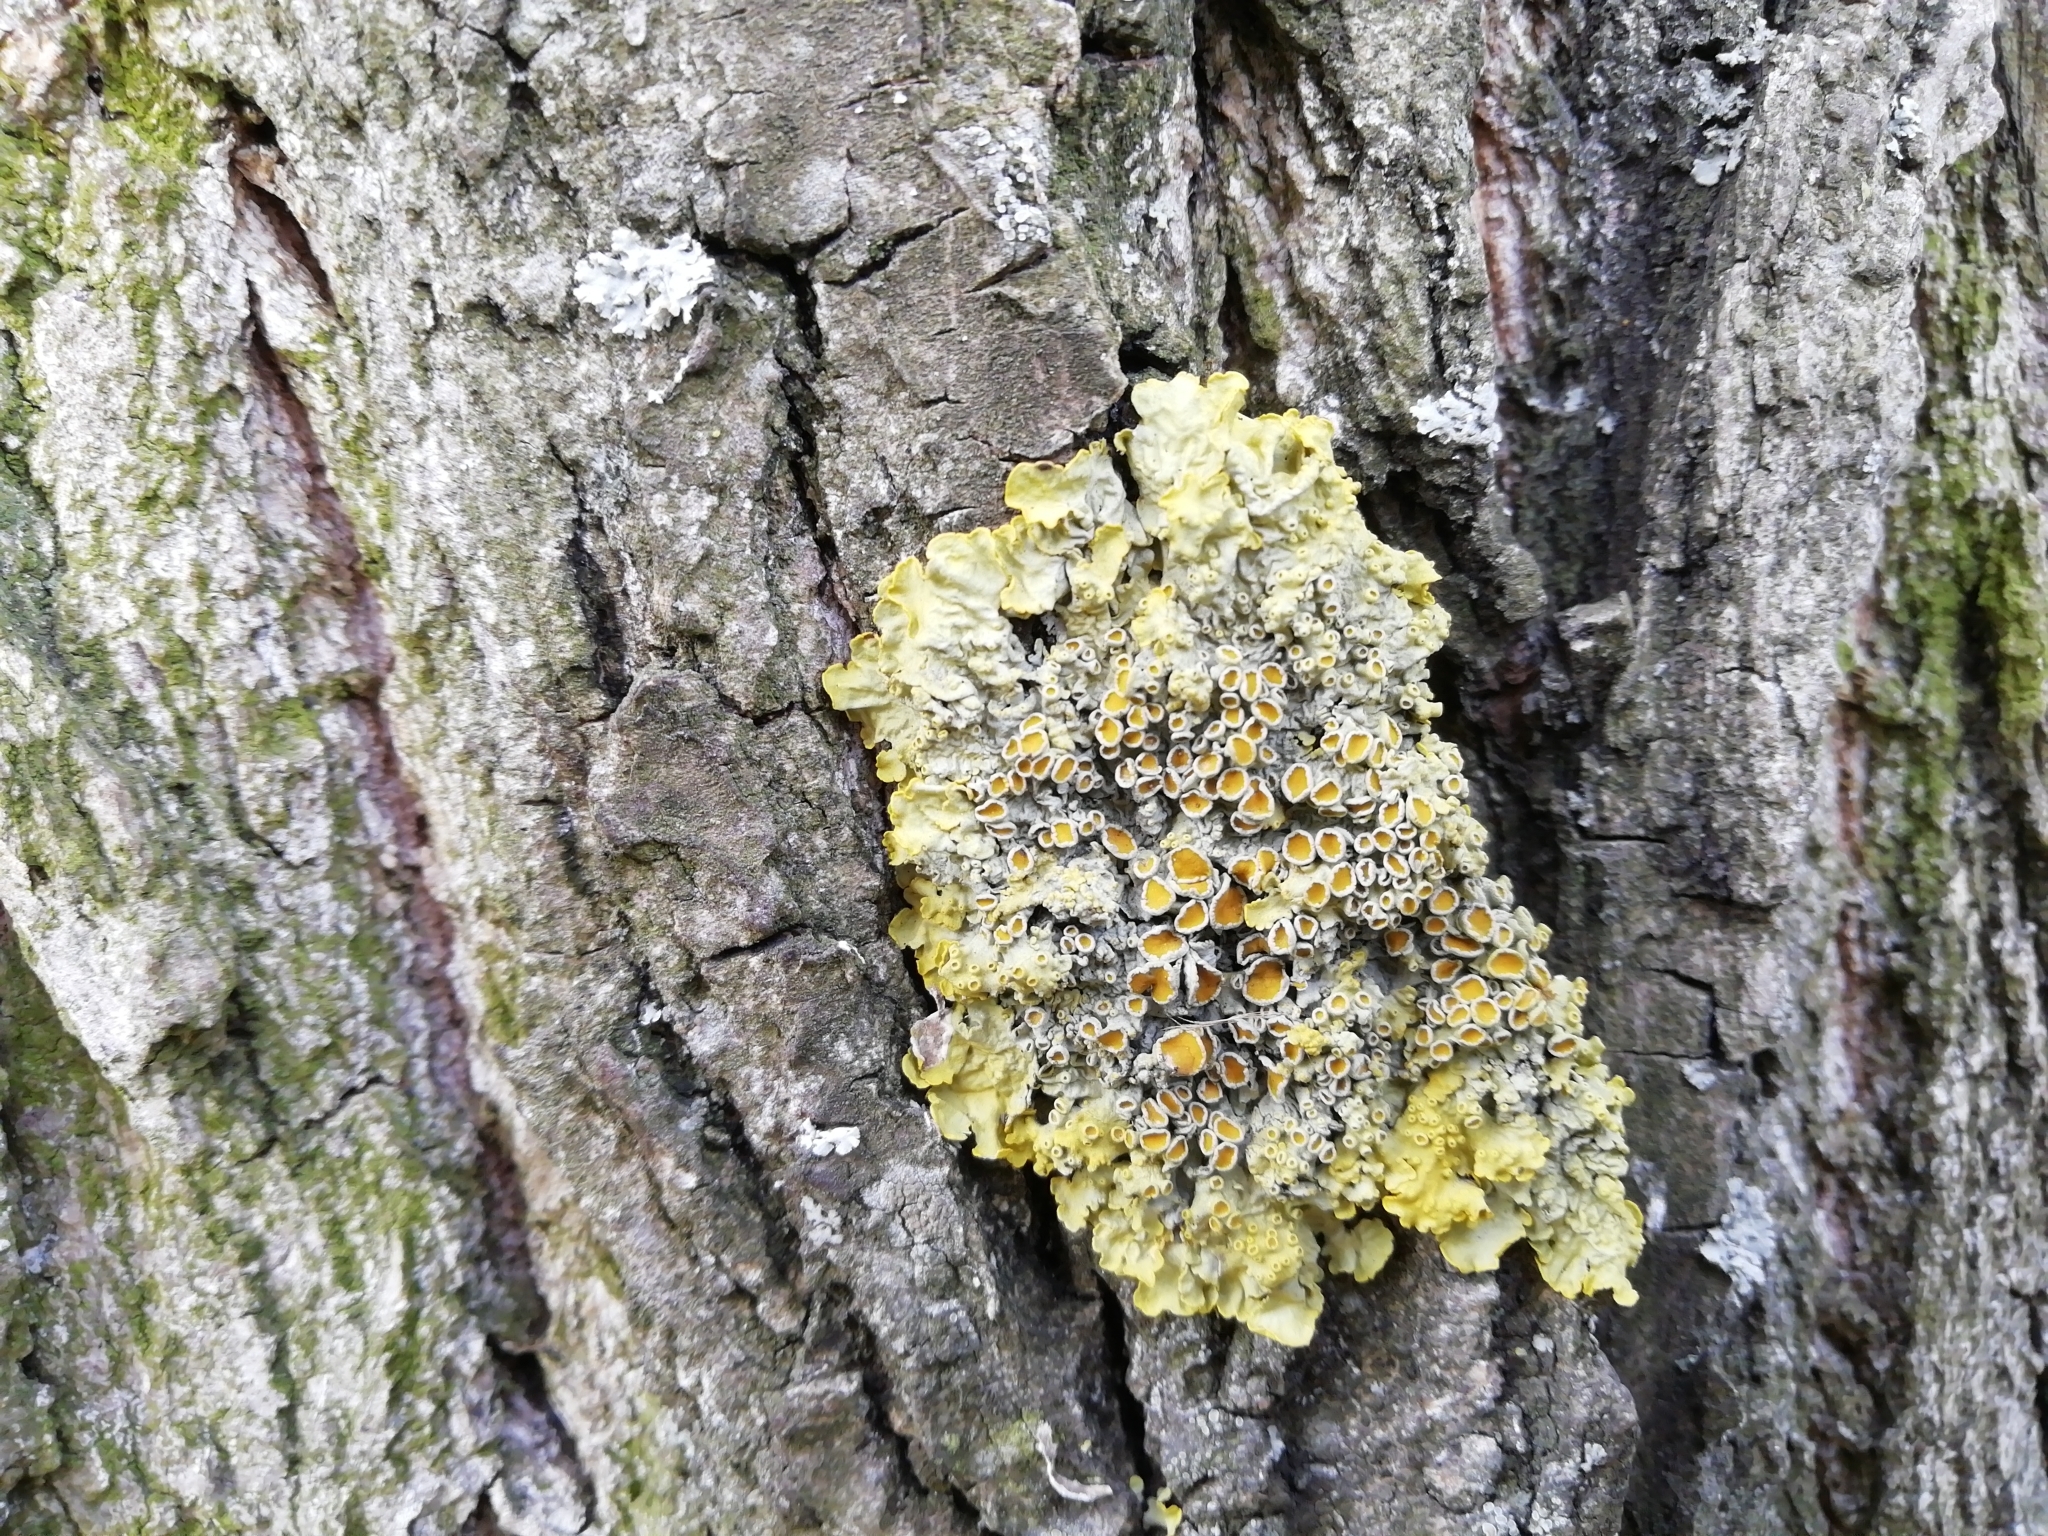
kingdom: Fungi
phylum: Ascomycota
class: Lecanoromycetes
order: Teloschistales
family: Teloschistaceae
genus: Xanthoria
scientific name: Xanthoria parietina
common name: Common orange lichen
